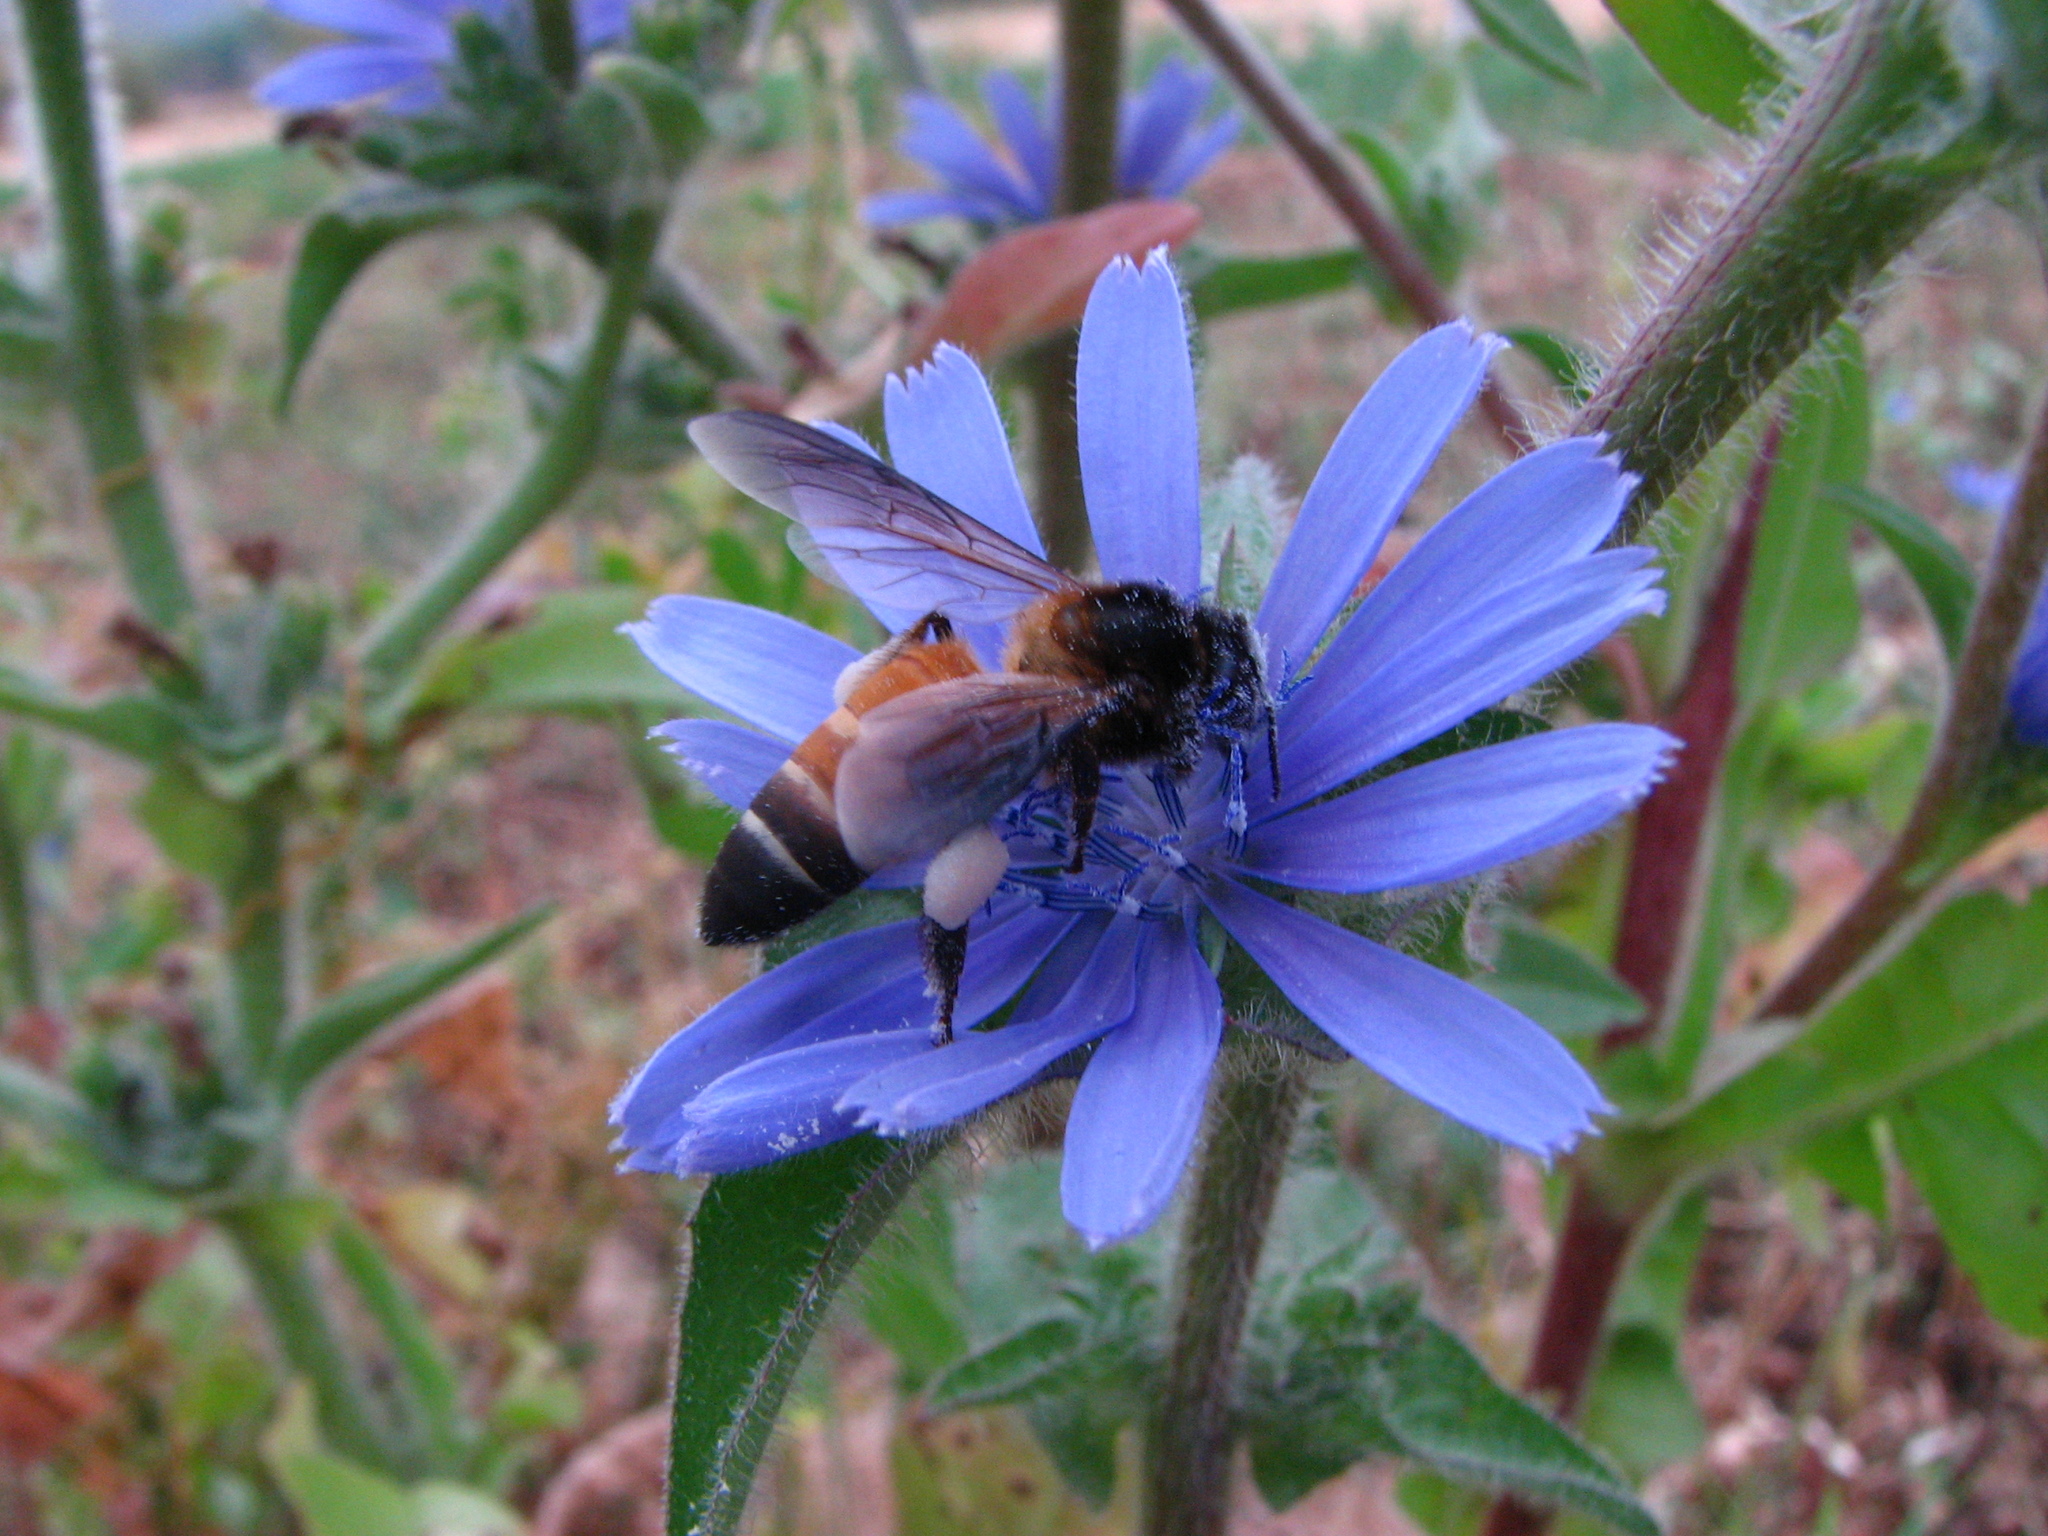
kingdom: Animalia
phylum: Arthropoda
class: Insecta
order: Hymenoptera
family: Apidae
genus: Apis
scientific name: Apis dorsata
